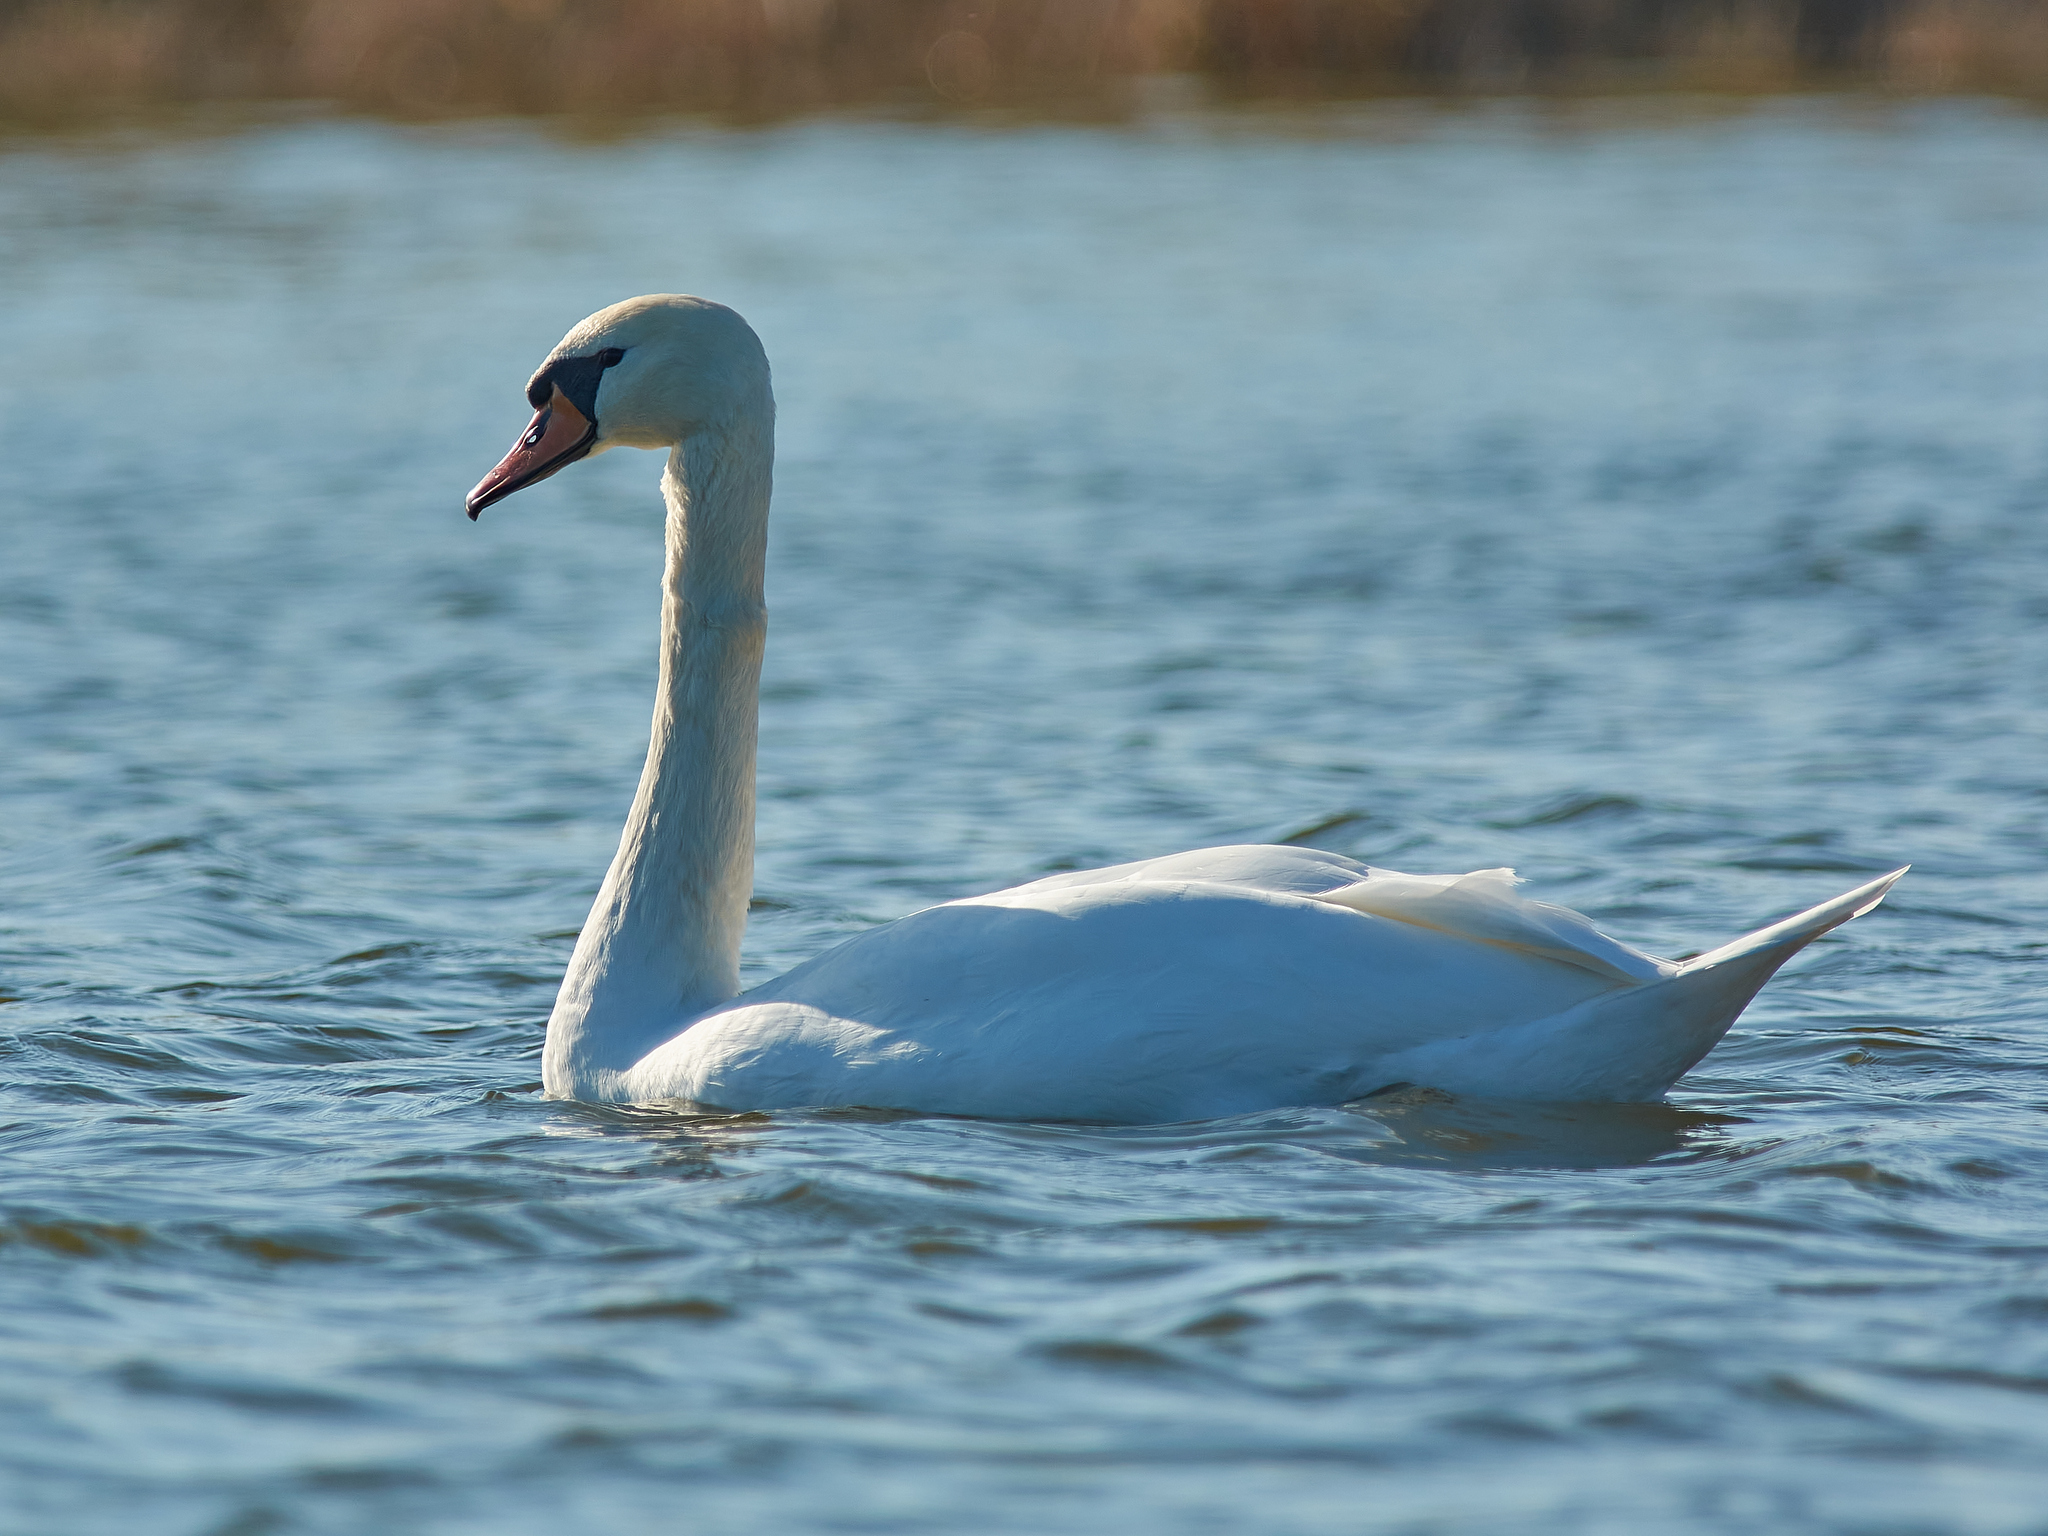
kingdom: Animalia
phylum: Chordata
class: Aves
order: Anseriformes
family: Anatidae
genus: Cygnus
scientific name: Cygnus olor
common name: Mute swan
